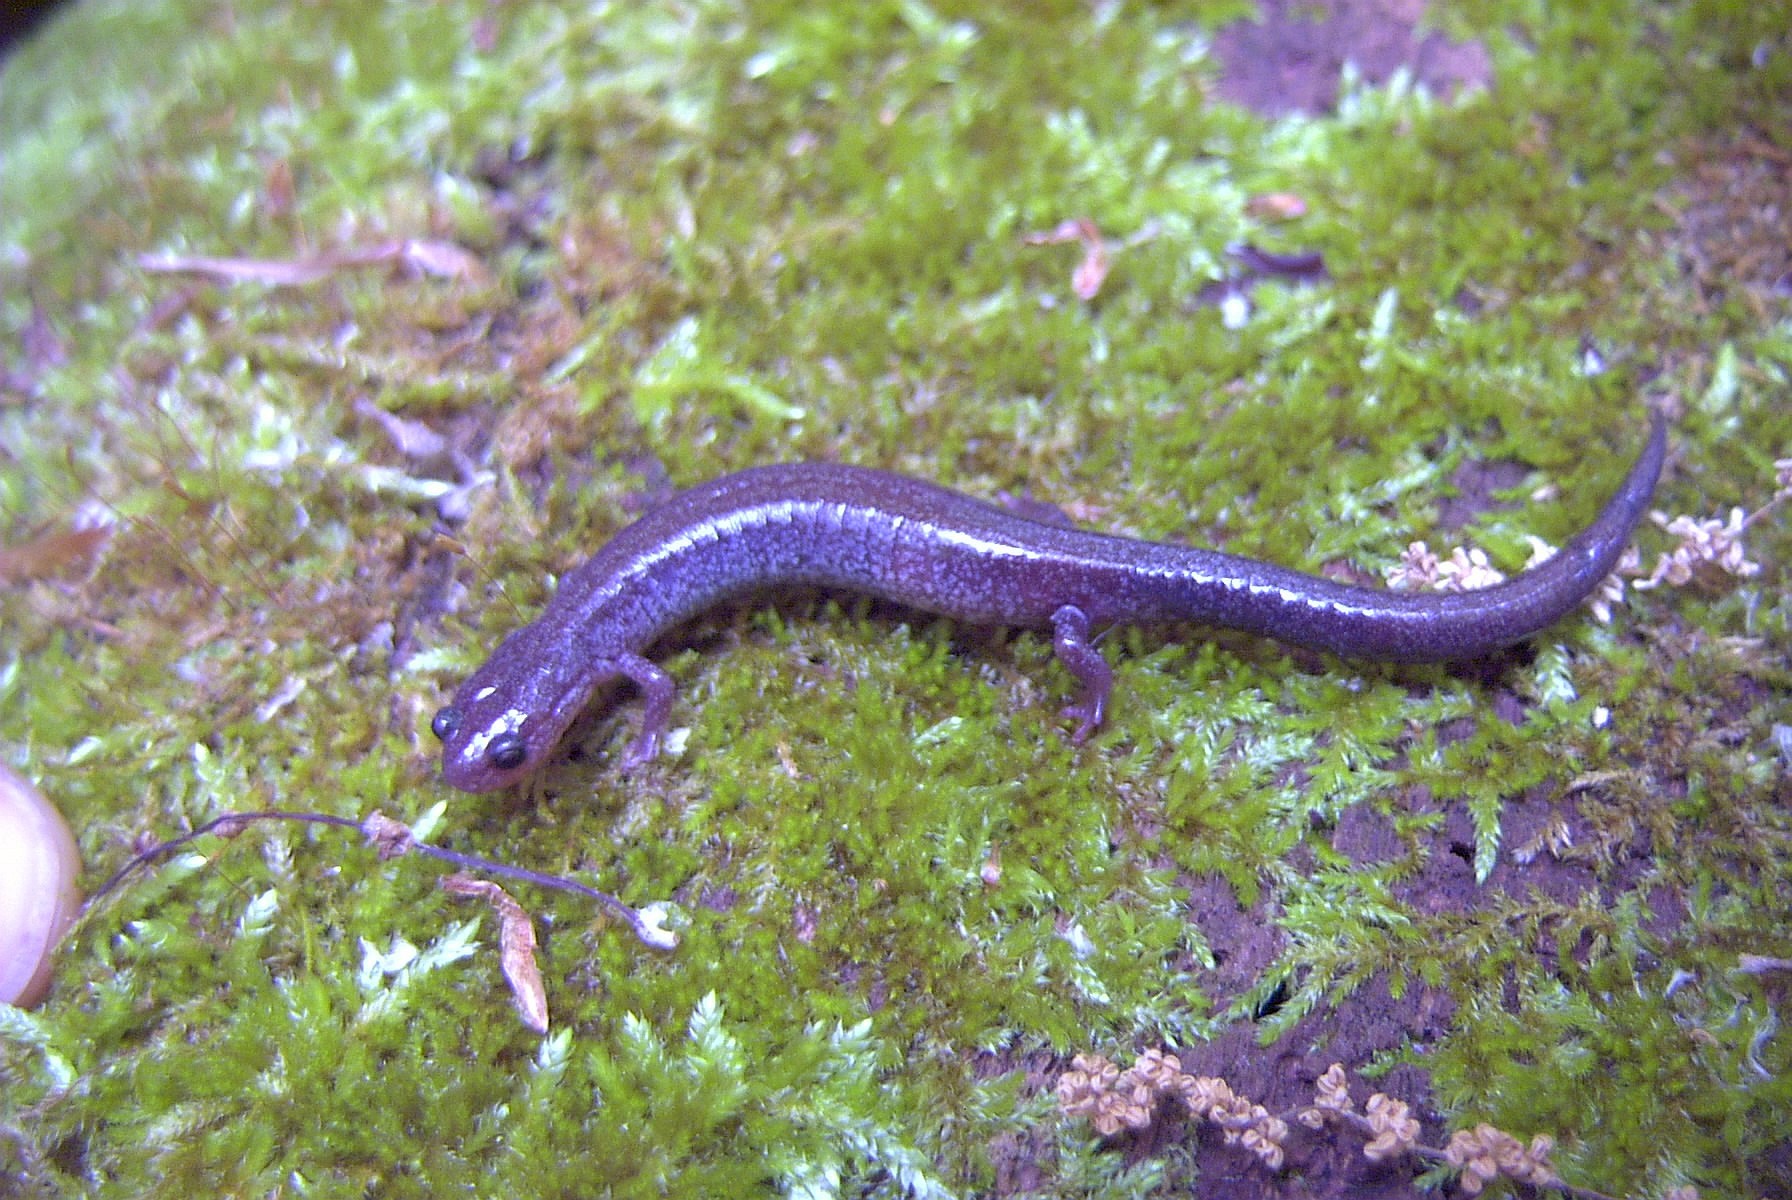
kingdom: Animalia
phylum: Chordata
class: Amphibia
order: Caudata
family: Plethodontidae
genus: Plethodon
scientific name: Plethodon cinereus
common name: Redback salamander
